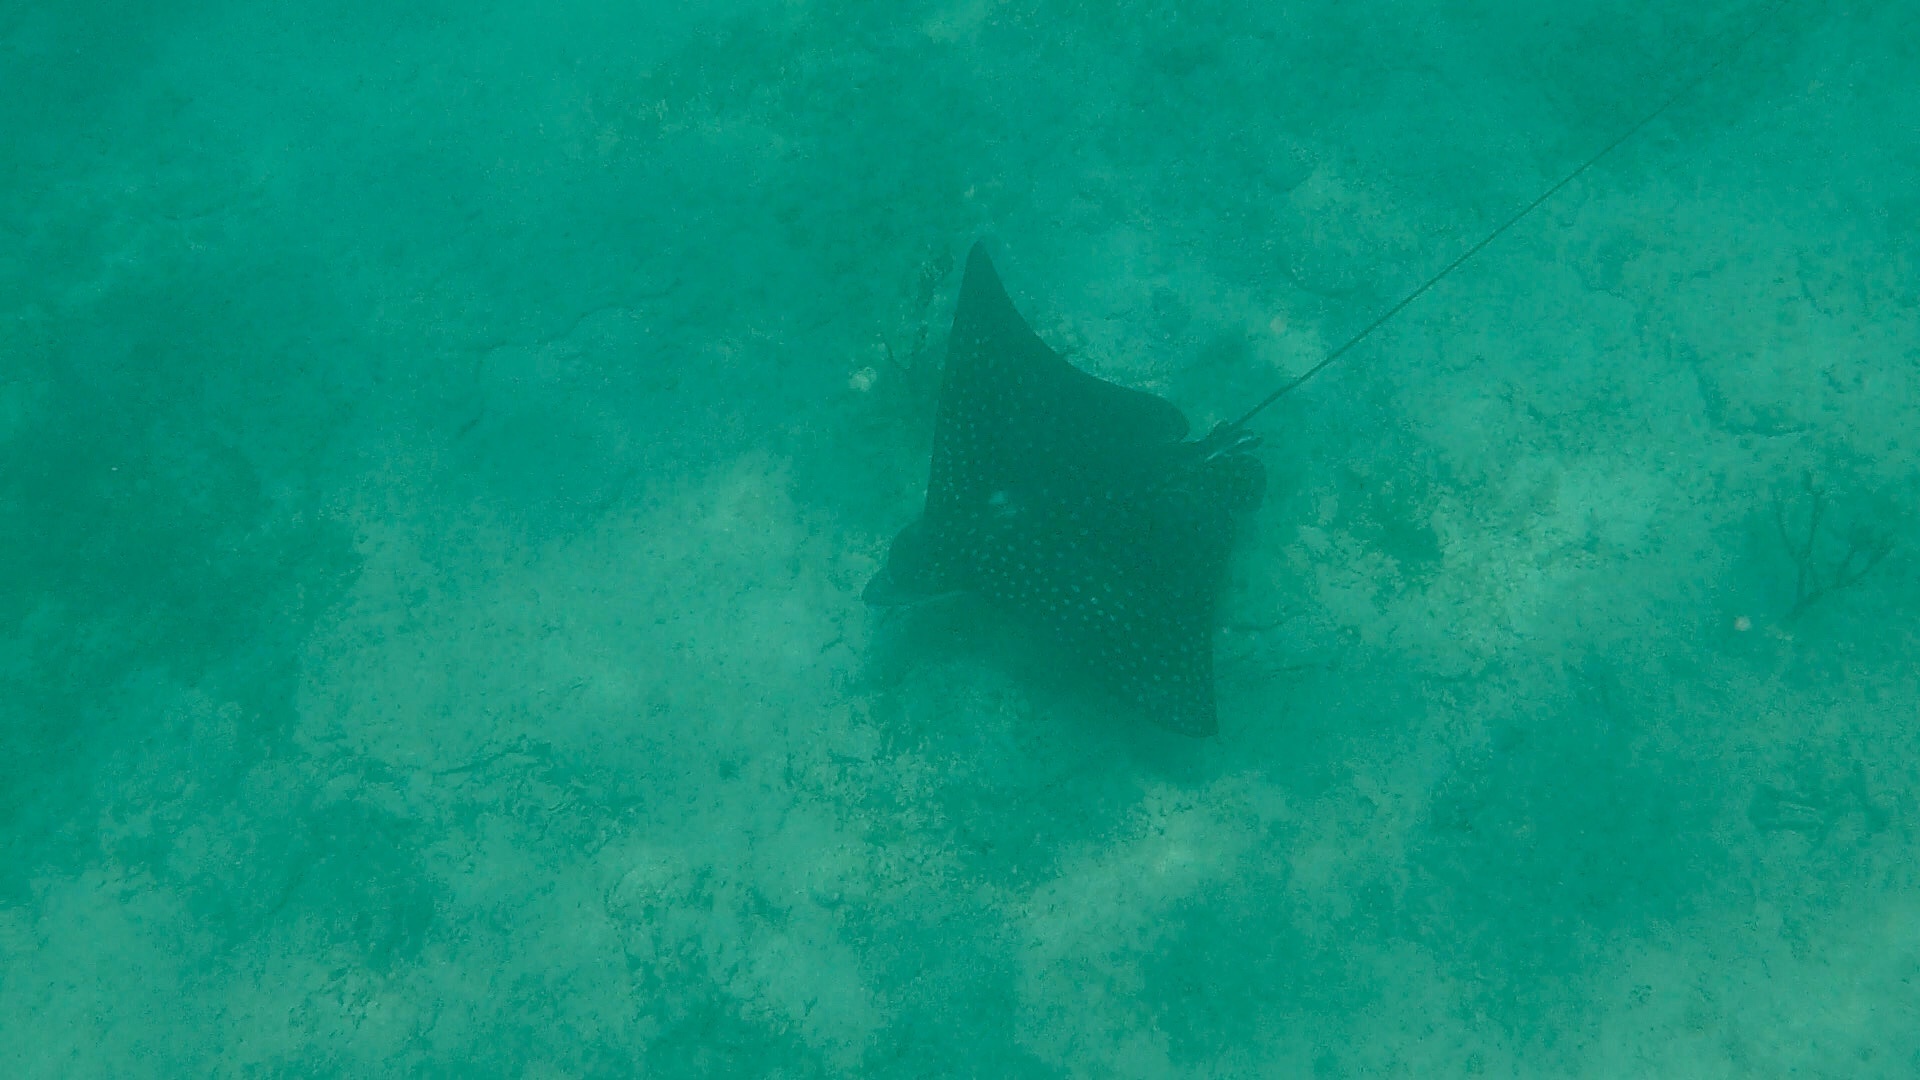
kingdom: Animalia
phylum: Chordata
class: Elasmobranchii
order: Myliobatiformes
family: Myliobatidae
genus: Aetobatus
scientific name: Aetobatus narinari
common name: Spotted eagle ray
